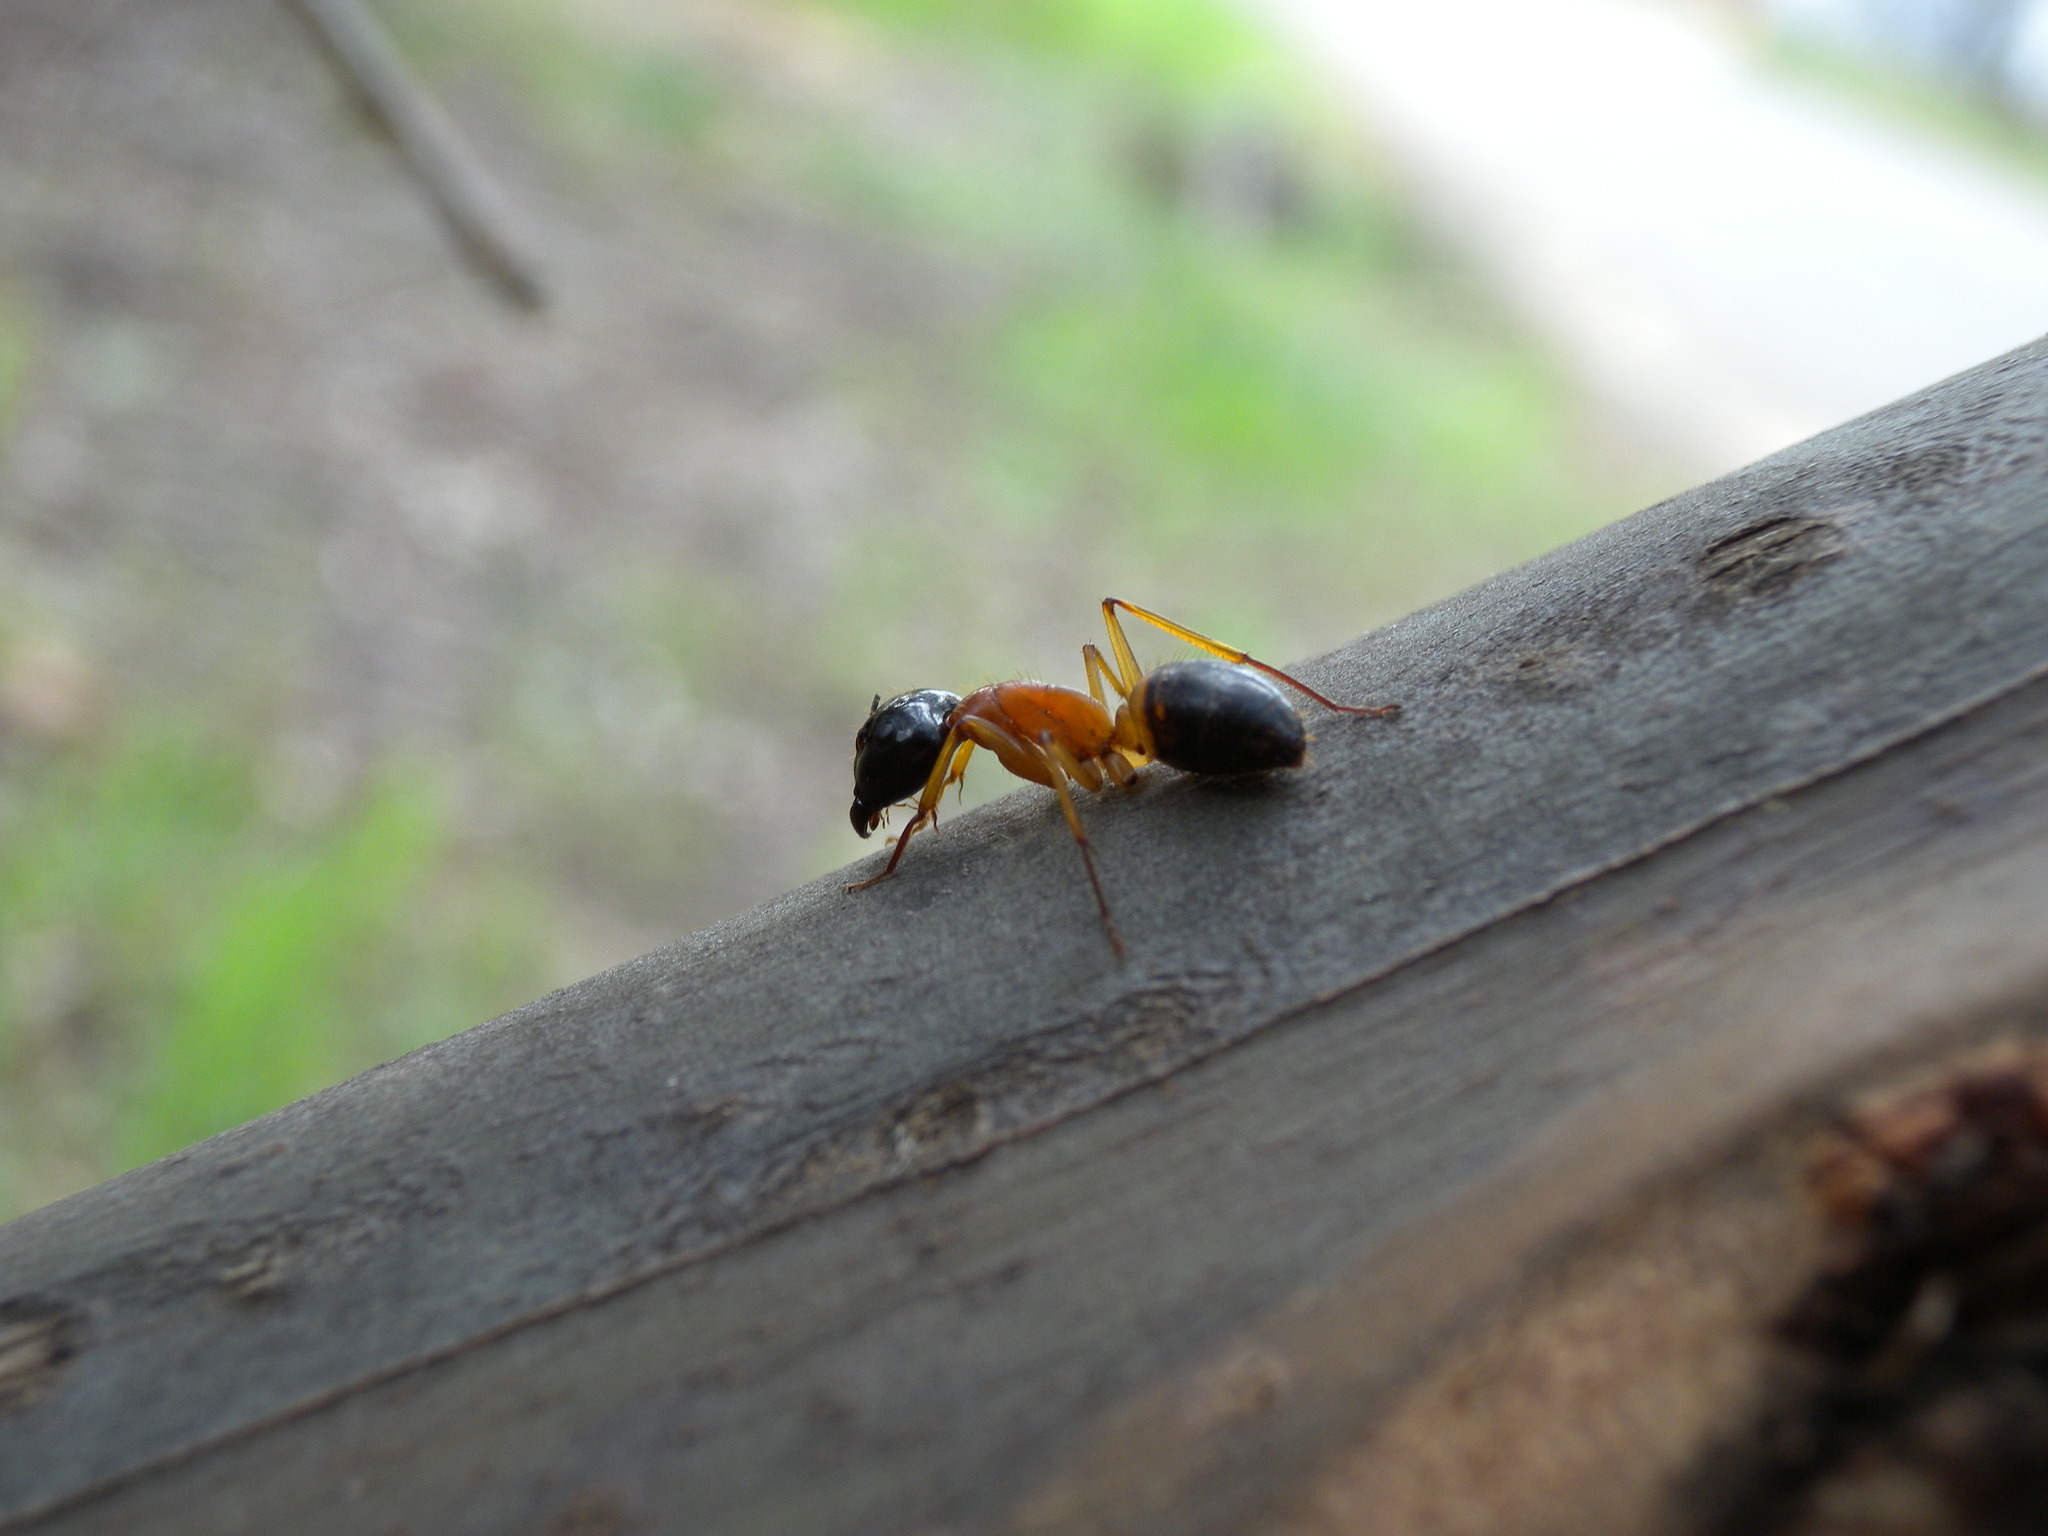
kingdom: Animalia
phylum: Arthropoda
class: Insecta
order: Hymenoptera
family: Formicidae
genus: Camponotus
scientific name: Camponotus consobrinus
